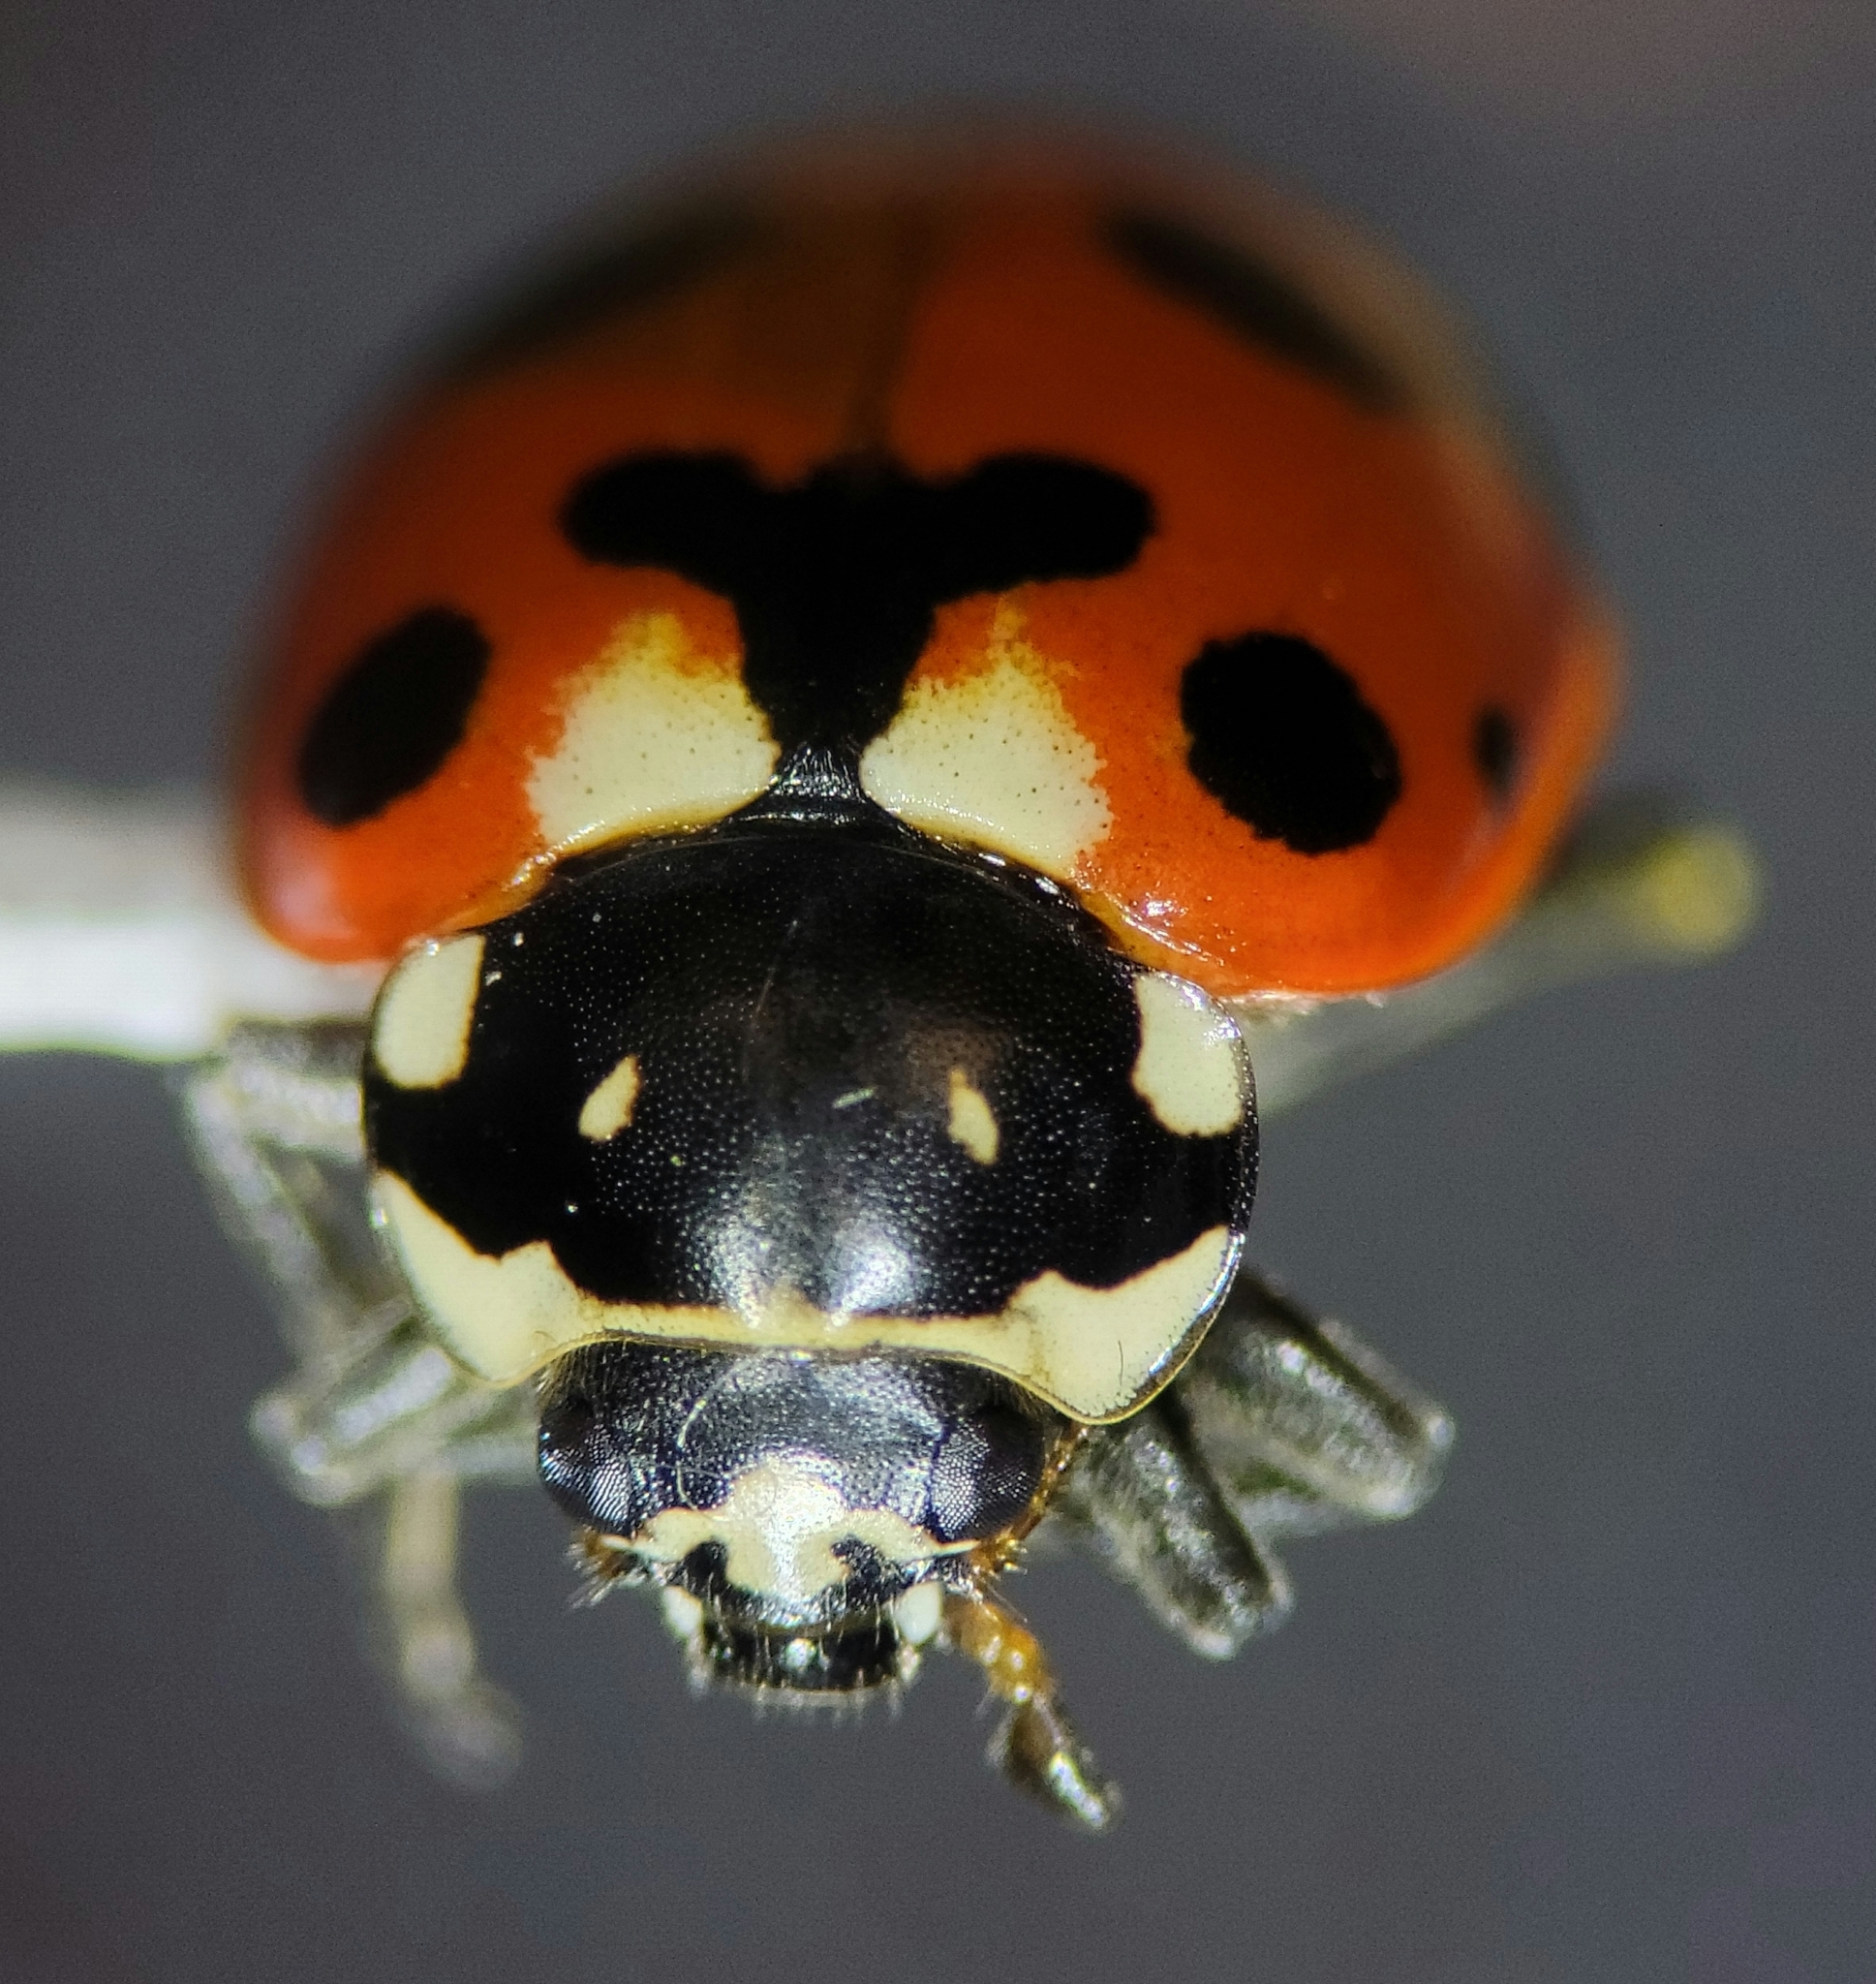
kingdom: Animalia
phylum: Arthropoda
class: Insecta
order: Coleoptera
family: Coccinellidae
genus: Hippodamia
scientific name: Hippodamia caseyi
